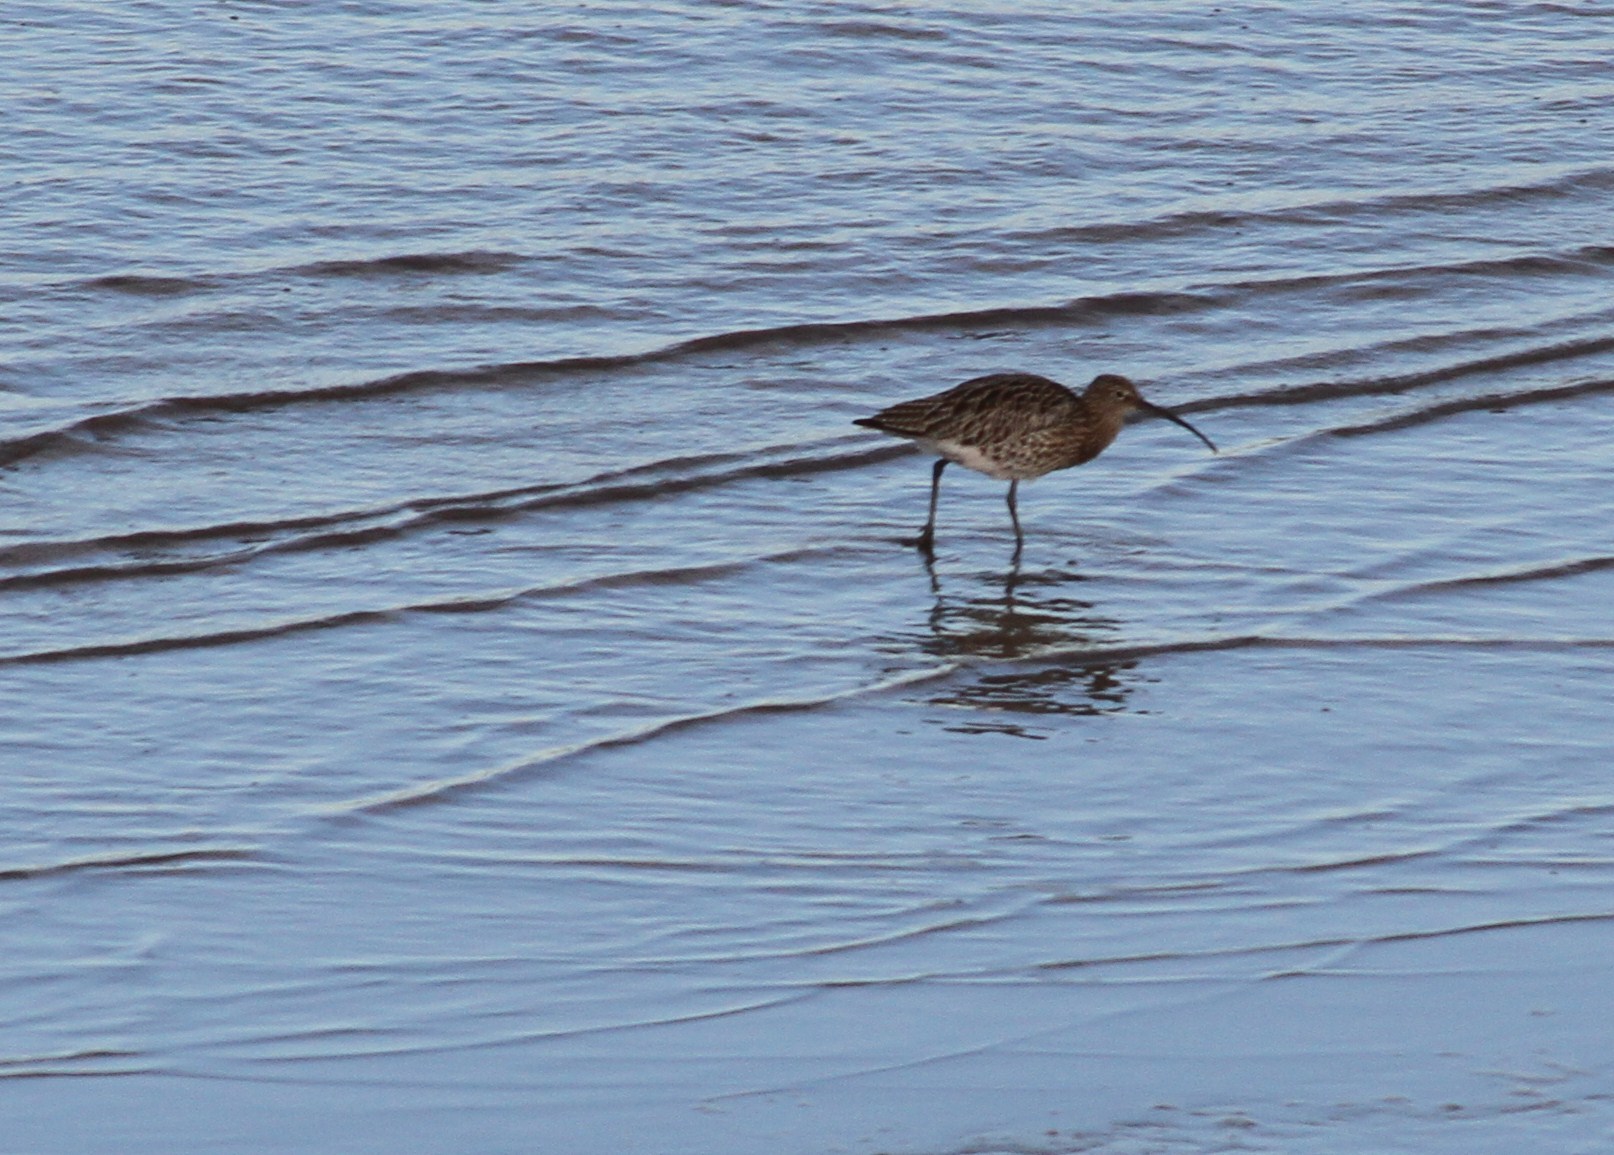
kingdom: Animalia
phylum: Chordata
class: Aves
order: Charadriiformes
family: Scolopacidae
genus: Numenius
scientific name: Numenius arquata
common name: Eurasian curlew
